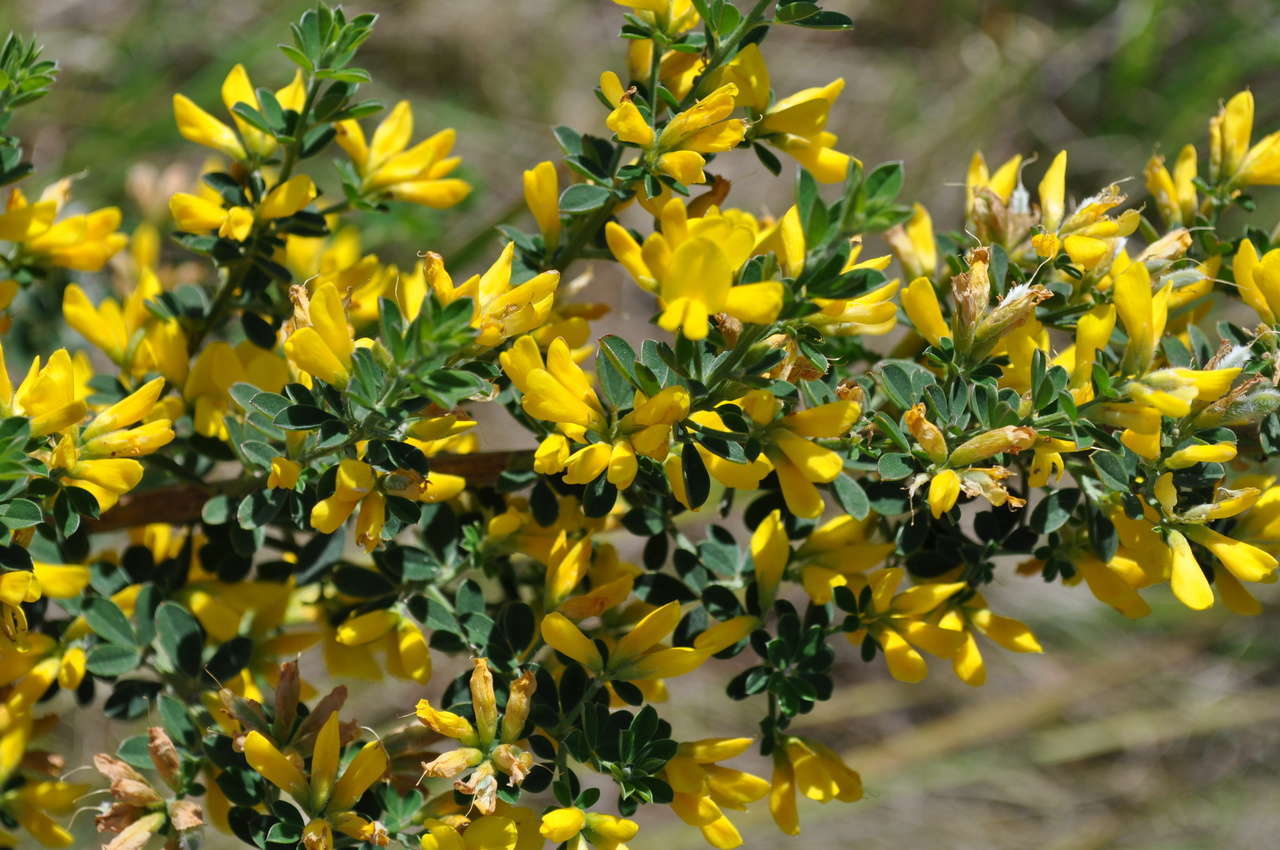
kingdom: Plantae
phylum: Tracheophyta
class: Magnoliopsida
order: Fabales
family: Fabaceae
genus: Genista
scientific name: Genista monspessulana
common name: Montpellier broom
